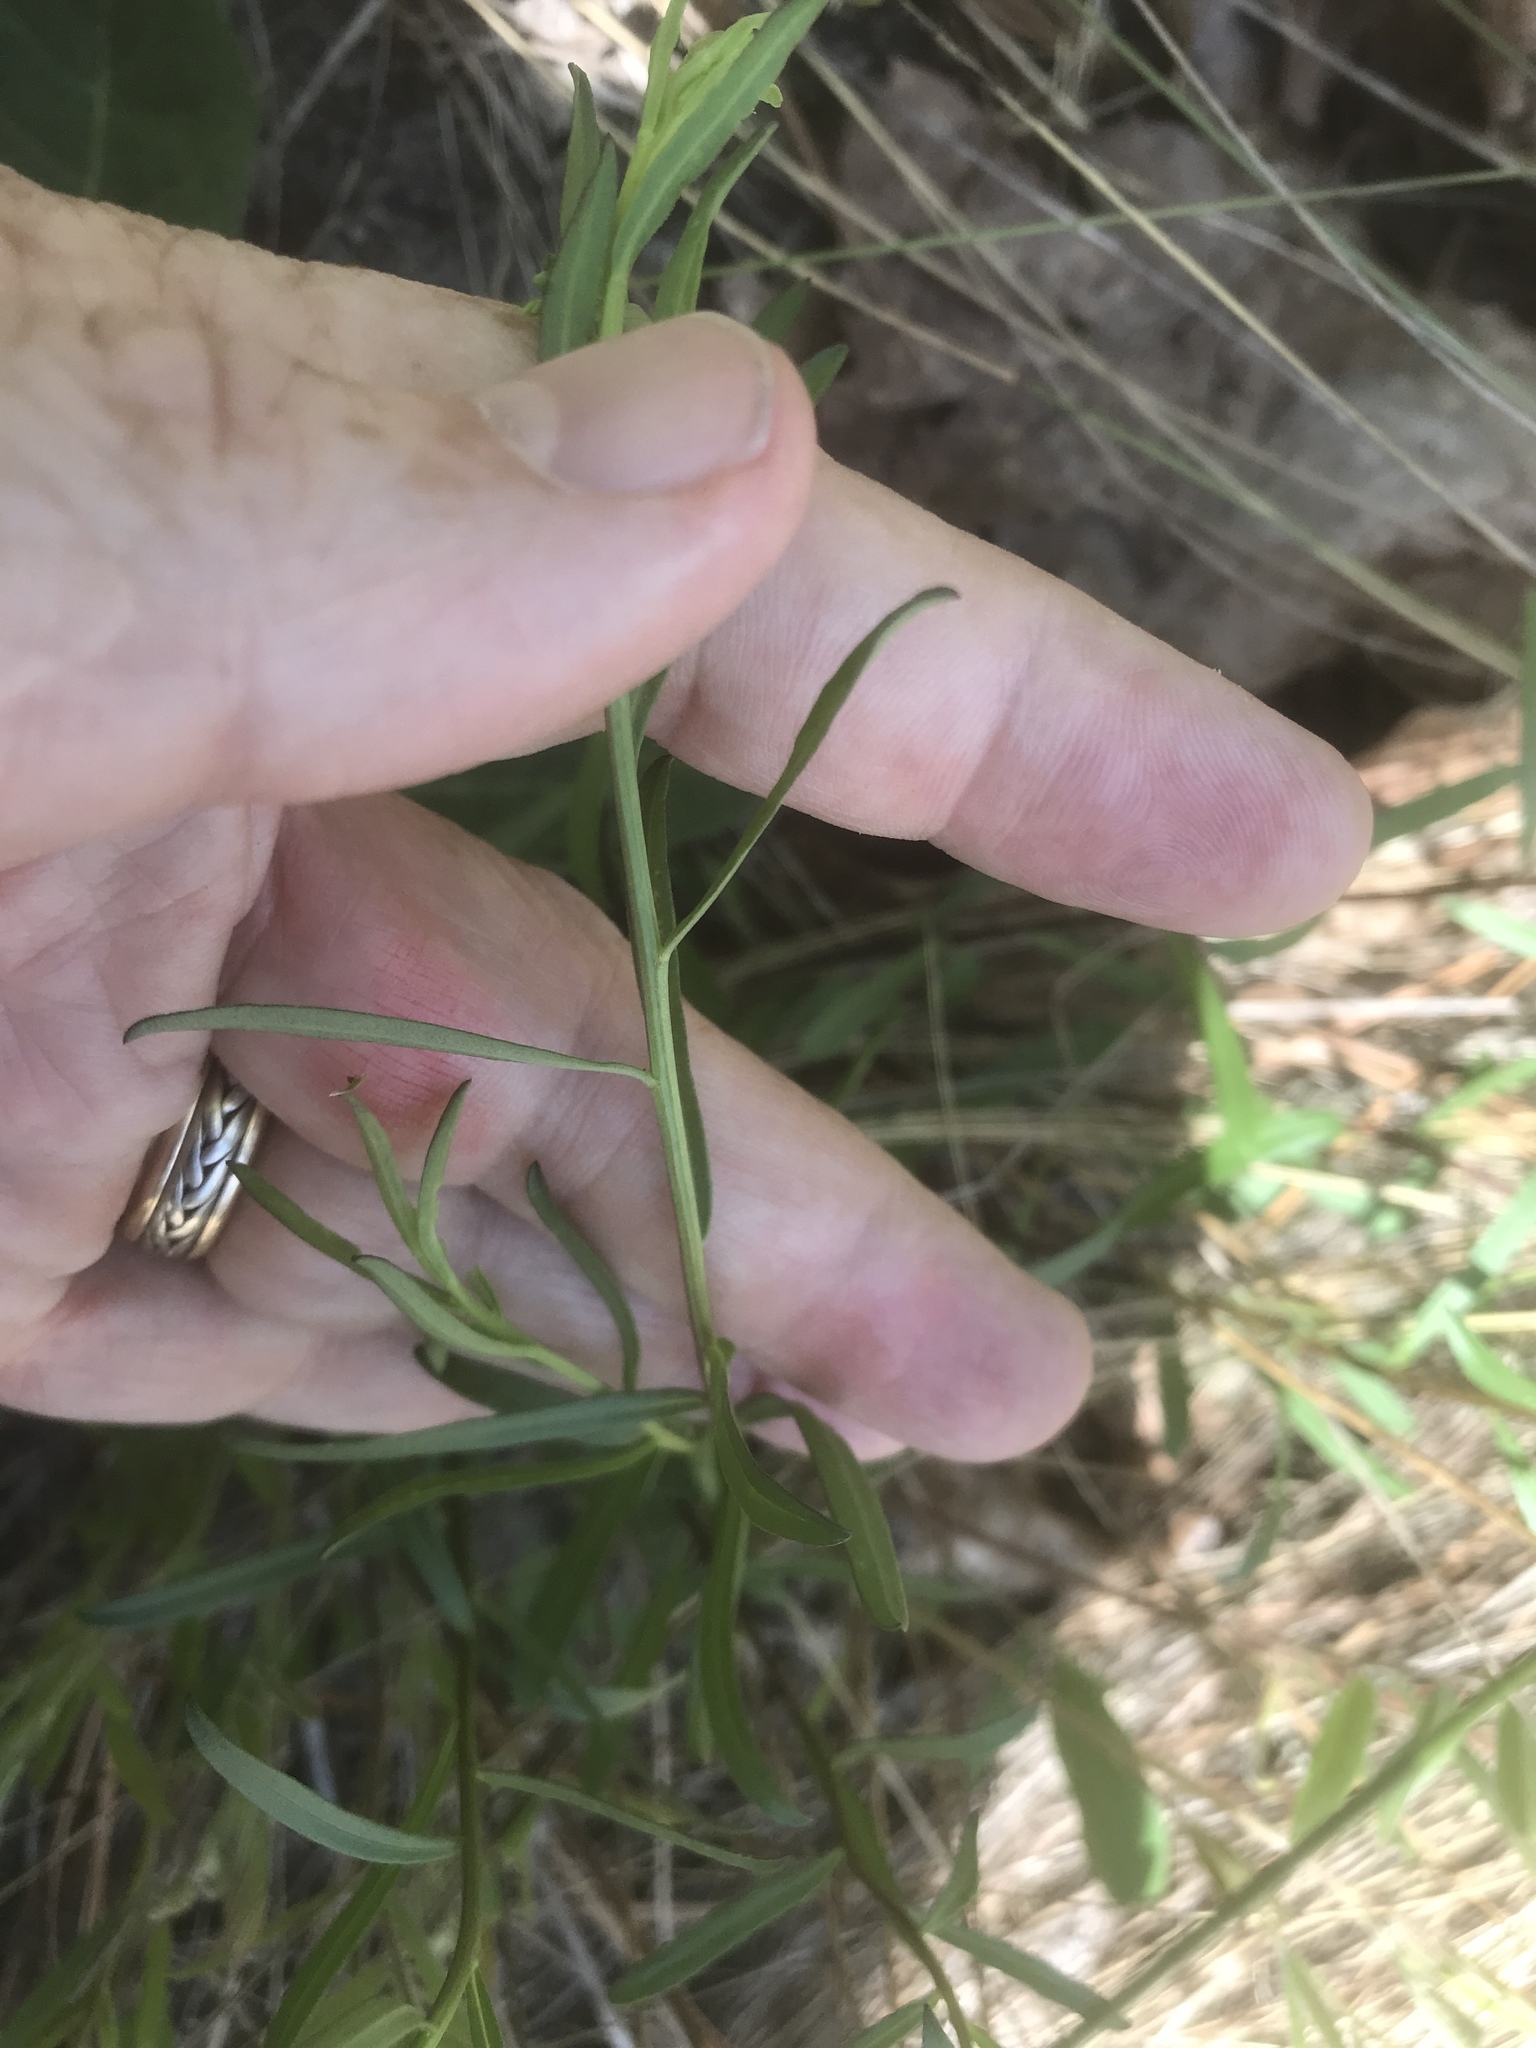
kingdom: Plantae
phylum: Tracheophyta
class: Magnoliopsida
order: Asterales
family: Asteraceae
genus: Sericocarpus
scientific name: Sericocarpus linifolius
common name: Narrow-leaf aster
